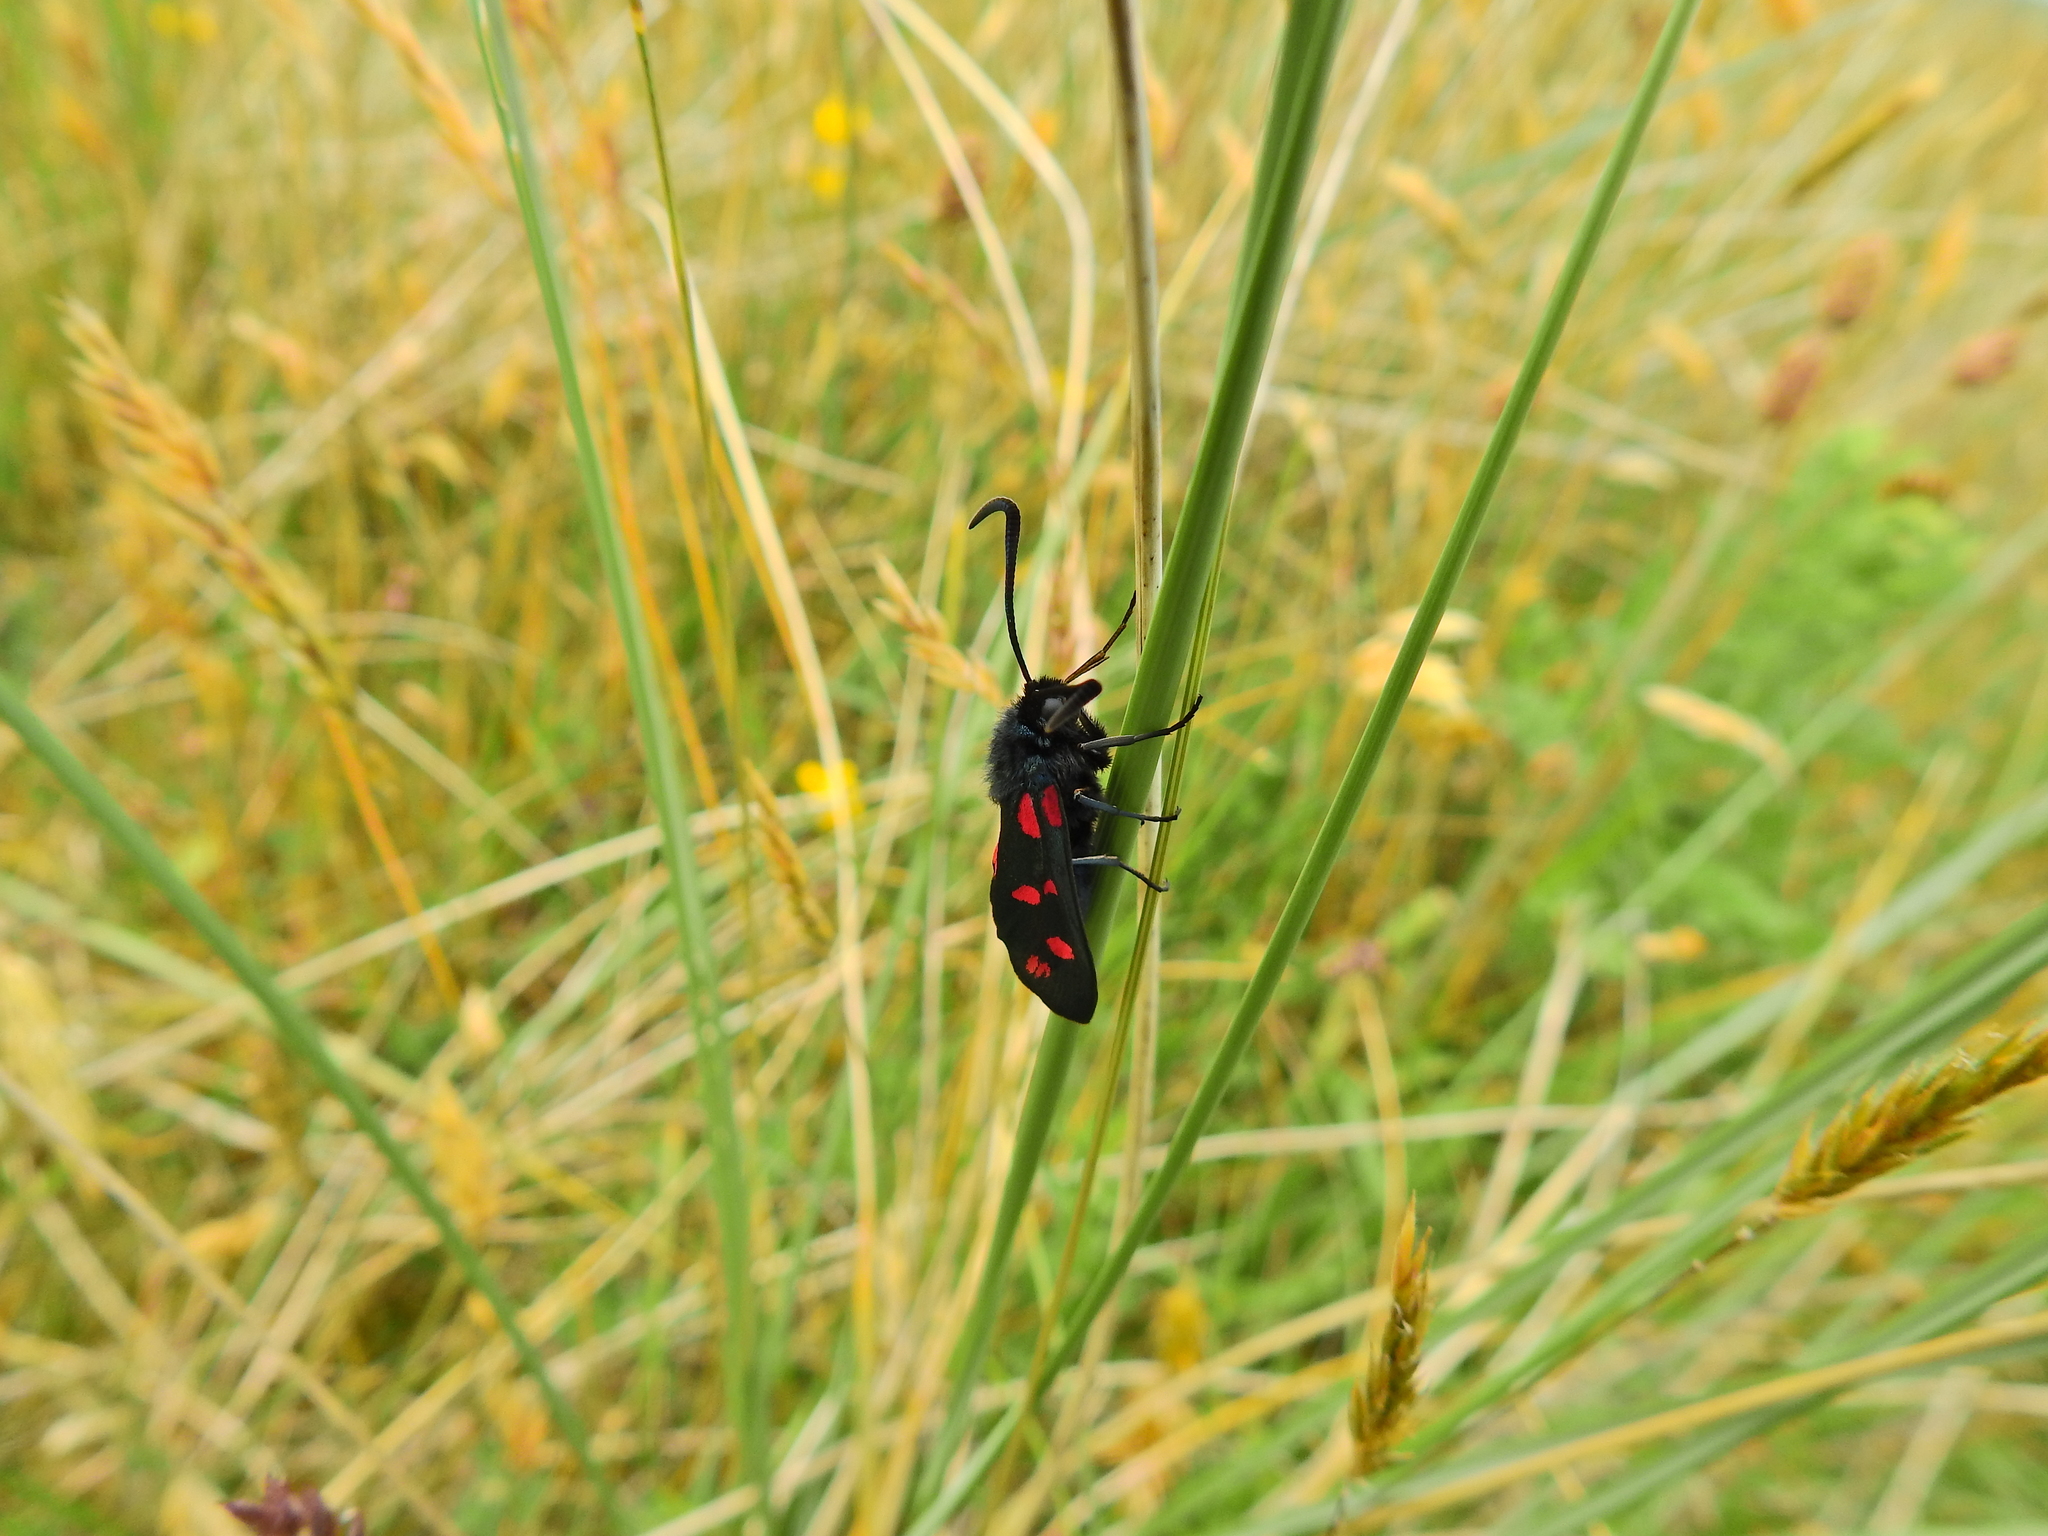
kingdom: Animalia
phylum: Arthropoda
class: Insecta
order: Lepidoptera
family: Zygaenidae
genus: Zygaena
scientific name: Zygaena filipendulae
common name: Six-spot burnet
